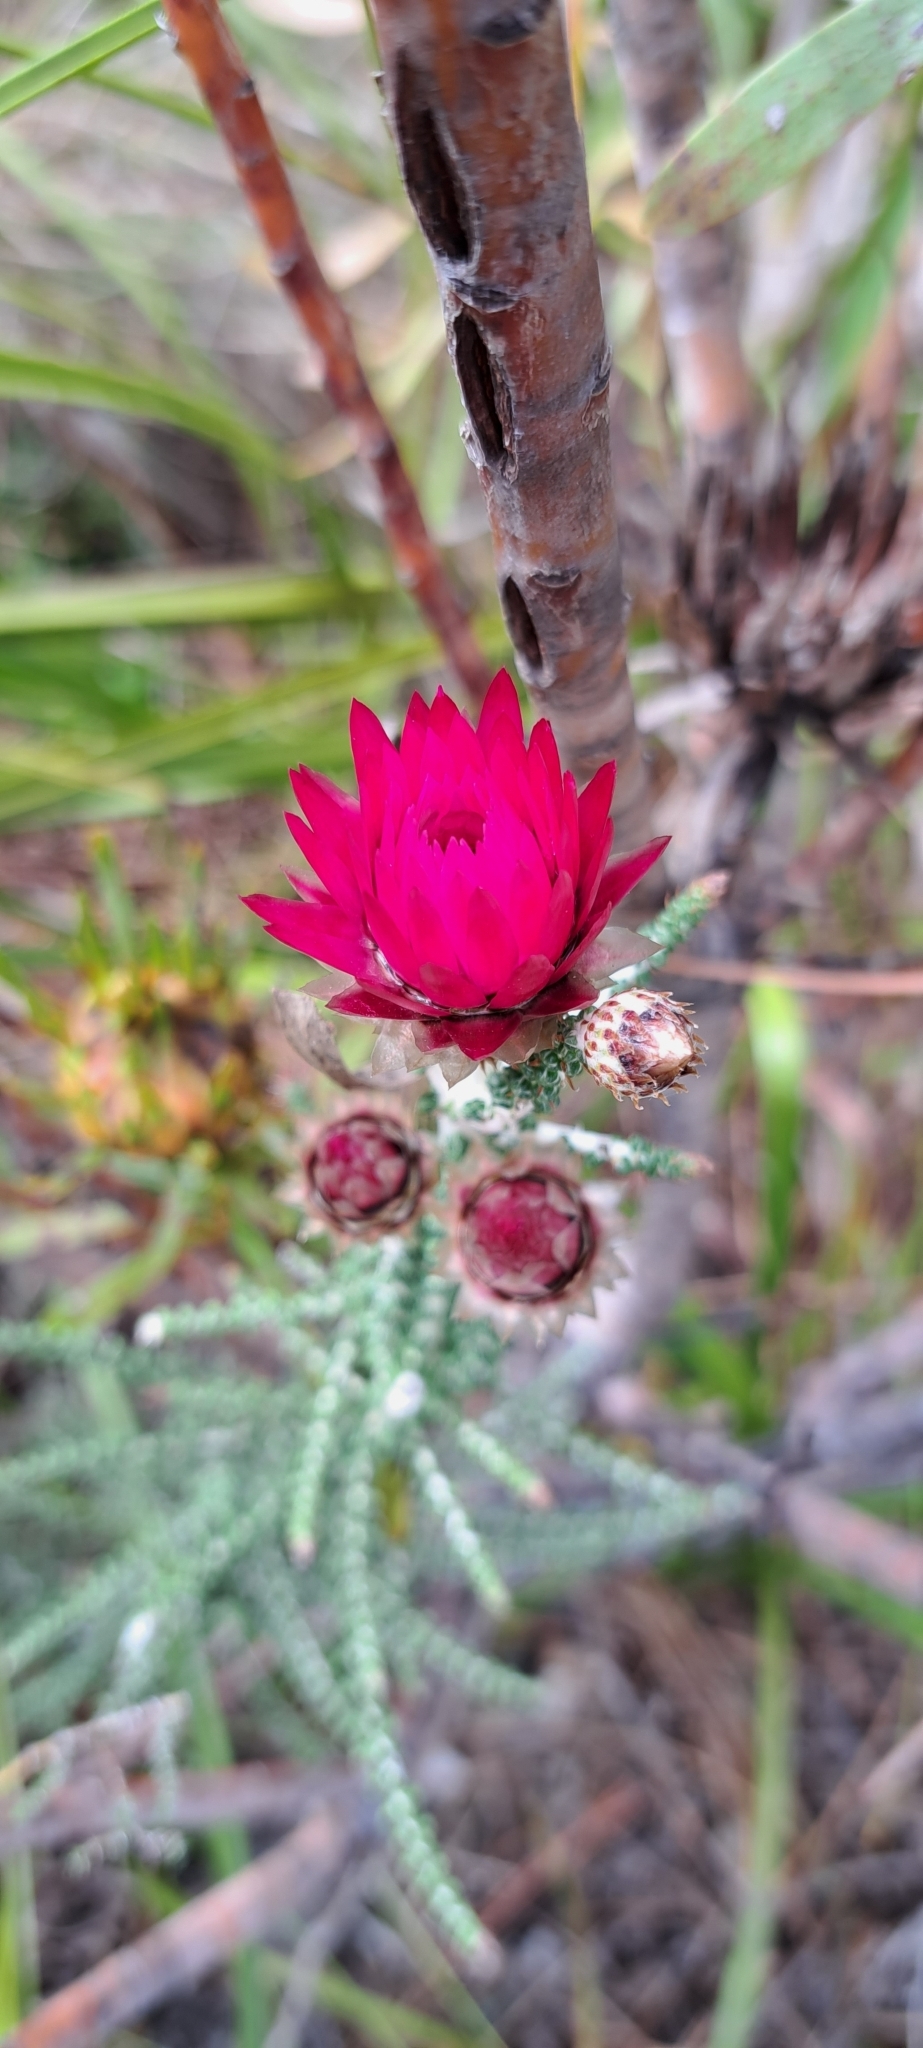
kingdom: Plantae
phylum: Tracheophyta
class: Magnoliopsida
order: Asterales
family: Asteraceae
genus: Phaenocoma
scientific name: Phaenocoma prolifera
